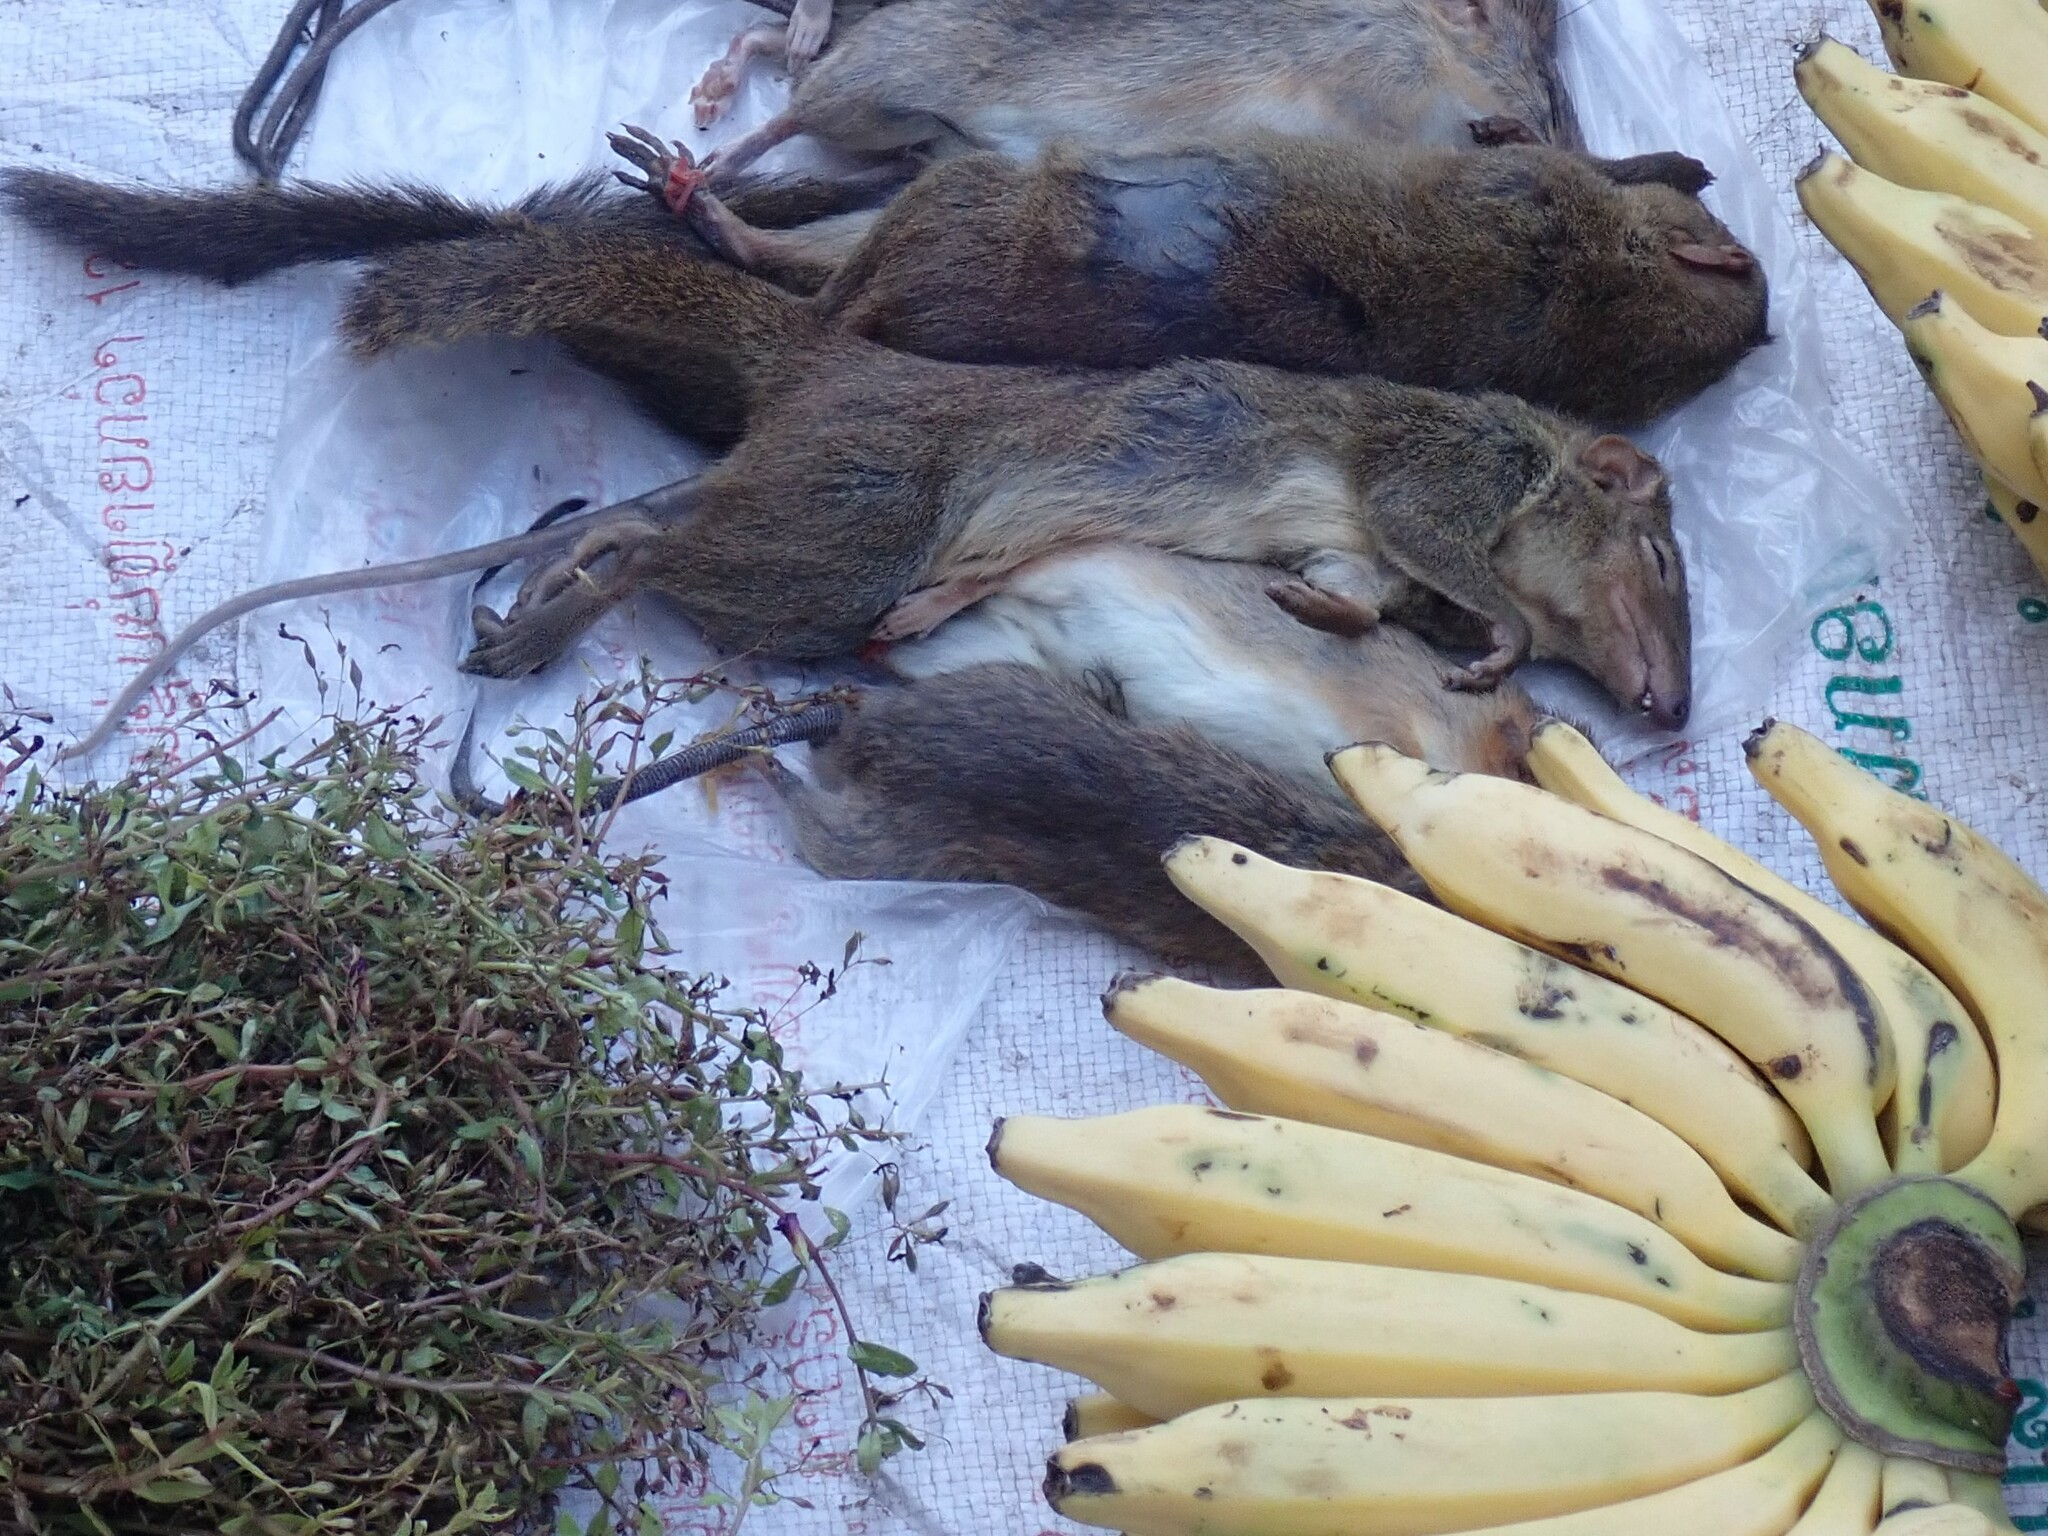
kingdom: Animalia
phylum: Chordata
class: Mammalia
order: Scandentia
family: Tupaiidae
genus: Tupaia
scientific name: Tupaia belangeri
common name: Northern treeshrew
